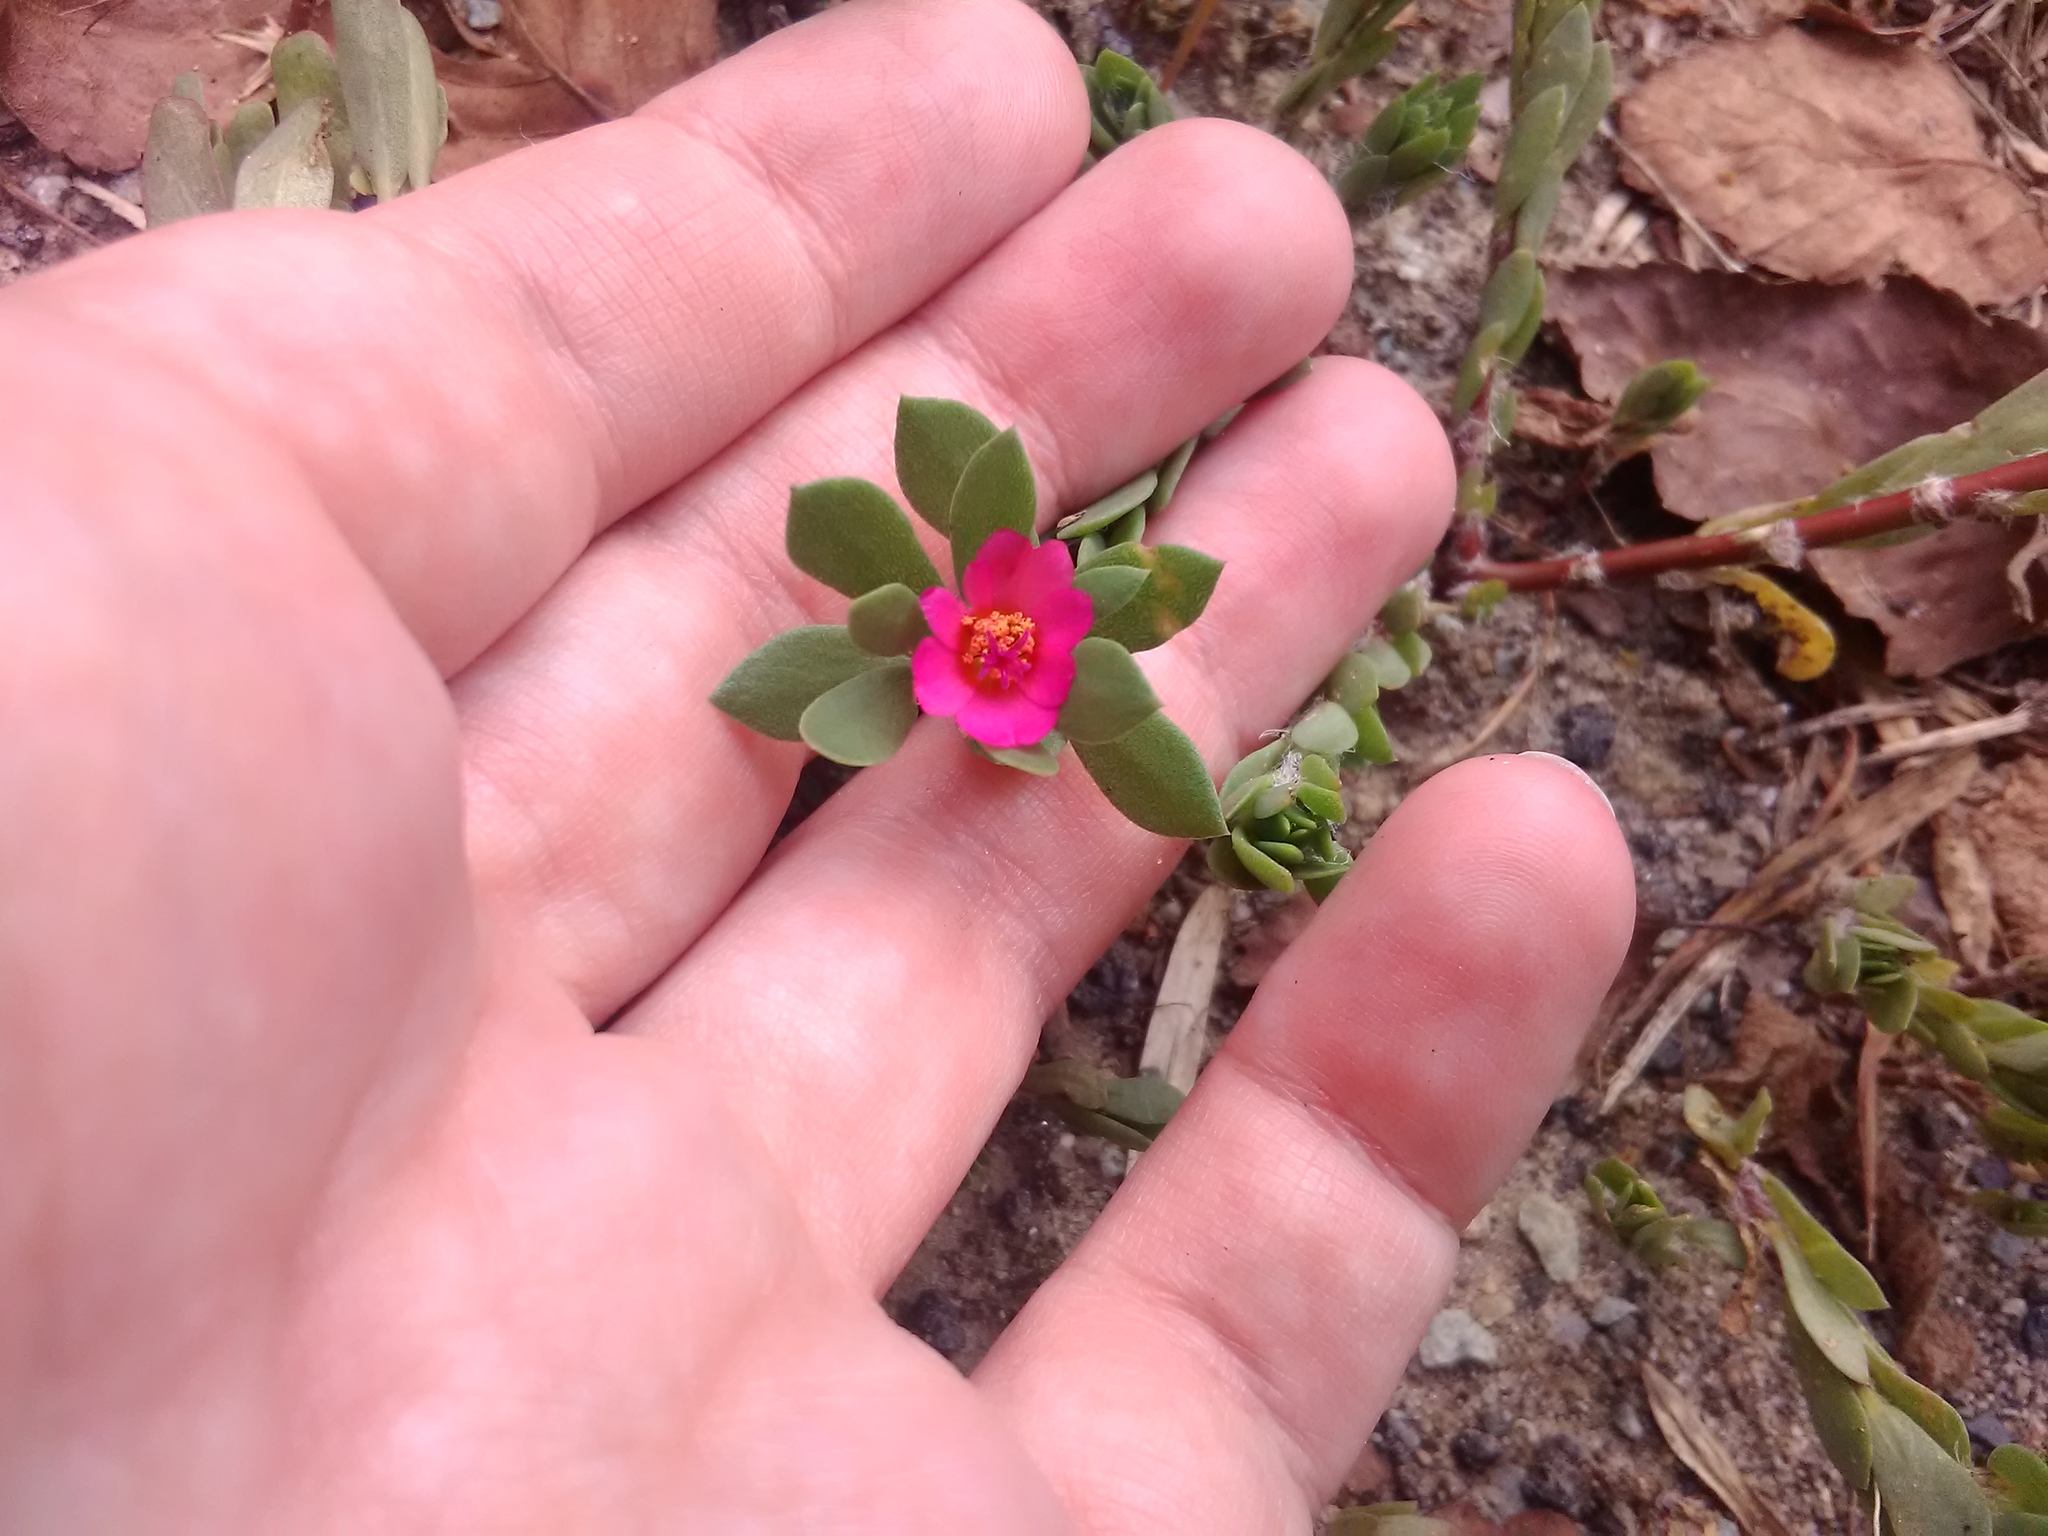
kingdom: Plantae
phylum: Tracheophyta
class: Magnoliopsida
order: Caryophyllales
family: Portulacaceae
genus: Portulaca
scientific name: Portulaca amilis
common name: Paraguayan purslane
